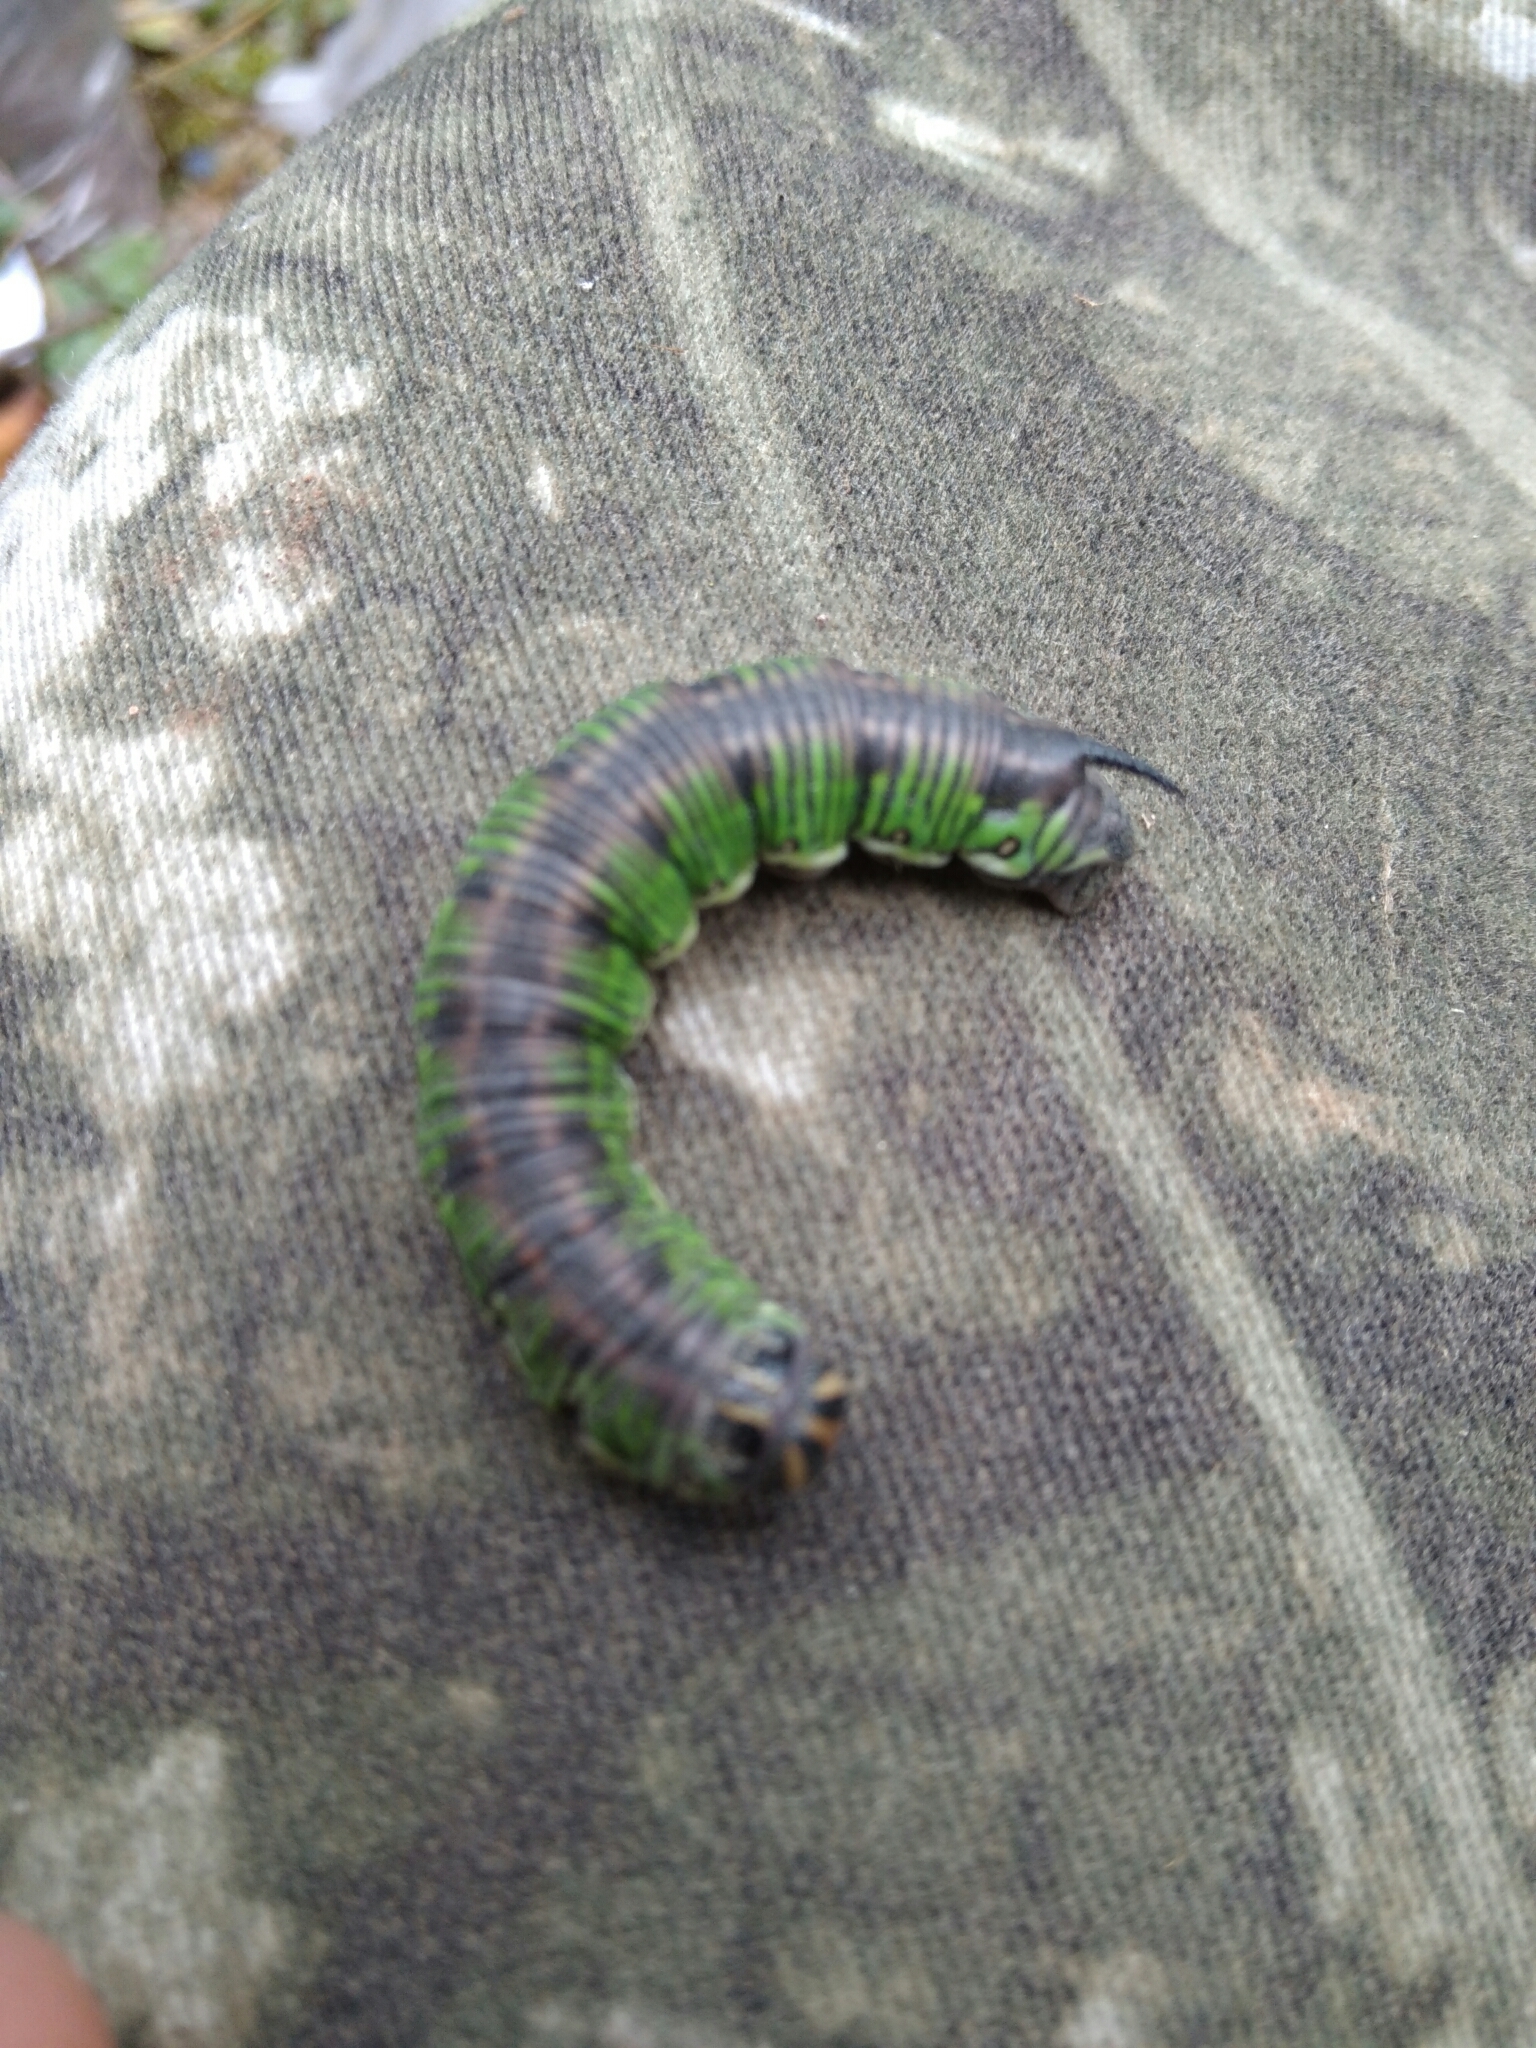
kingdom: Animalia
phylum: Arthropoda
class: Insecta
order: Lepidoptera
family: Sphingidae
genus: Sphinx
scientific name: Sphinx morio
